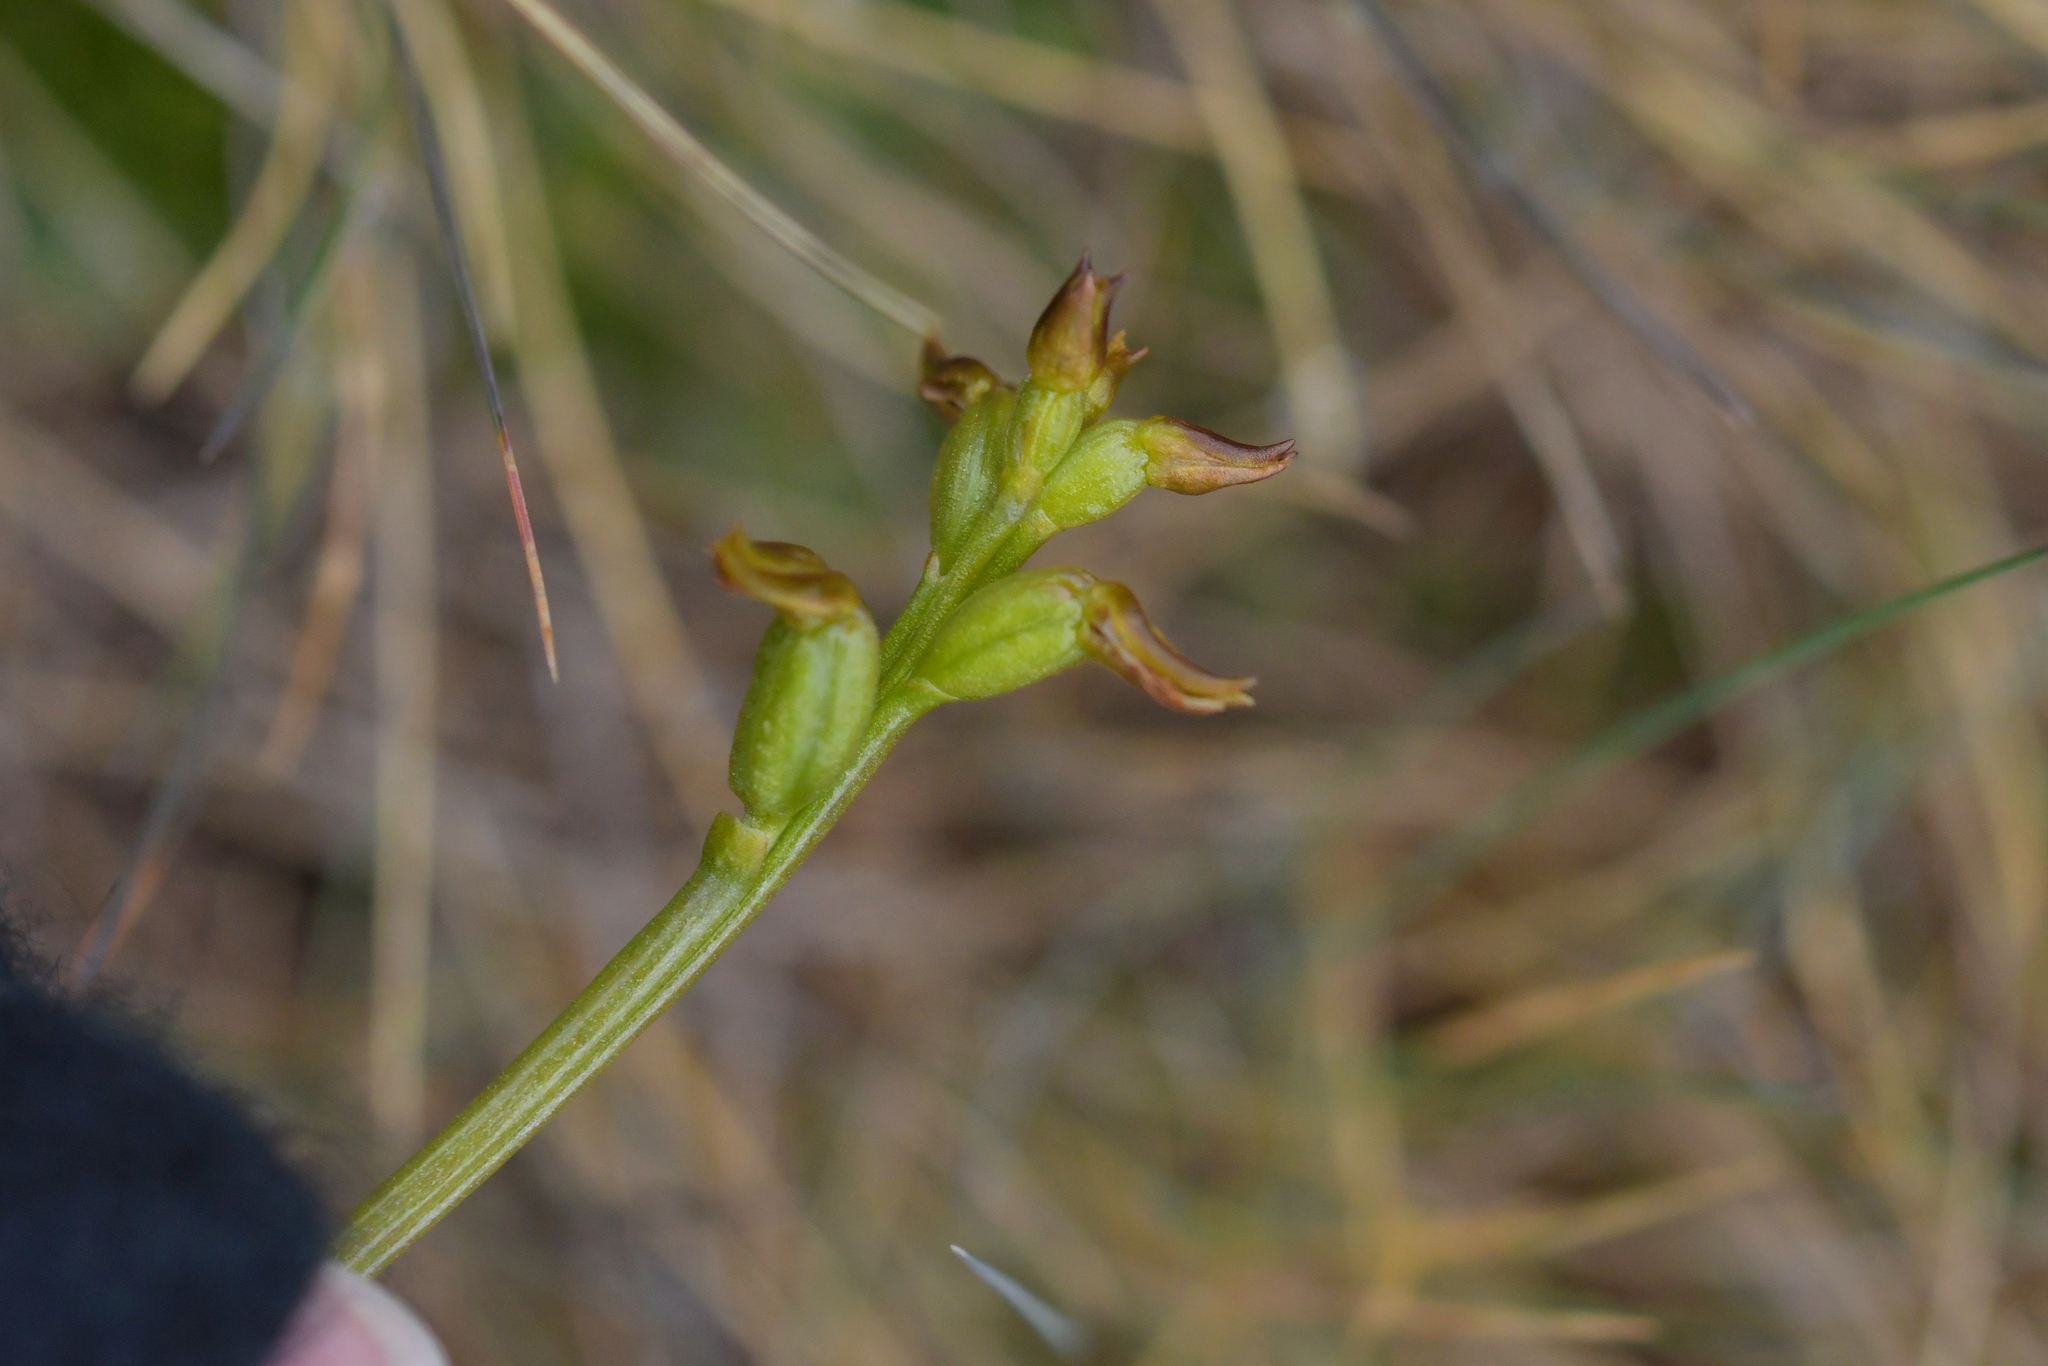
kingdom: Plantae
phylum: Tracheophyta
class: Liliopsida
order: Asparagales
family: Orchidaceae
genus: Prasophyllum
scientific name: Prasophyllum colensoi
